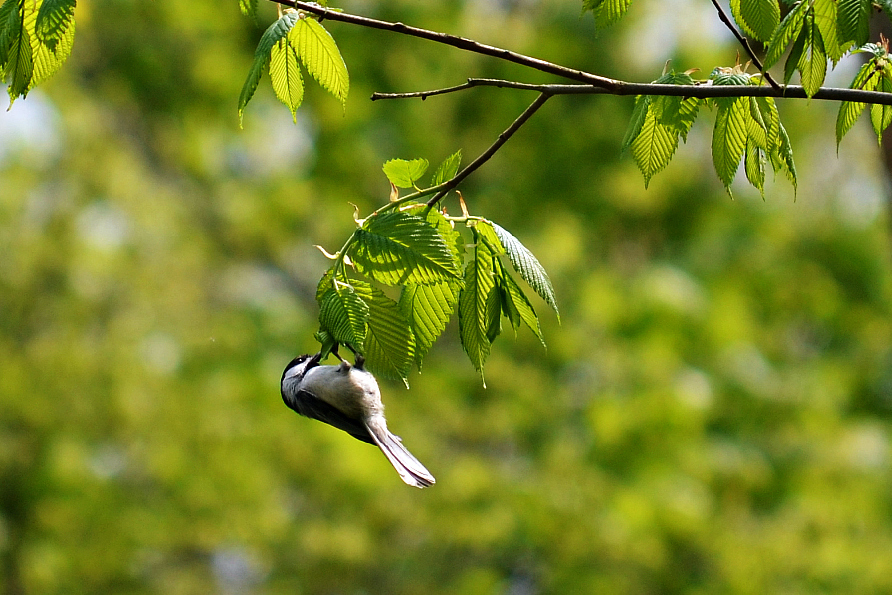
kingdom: Animalia
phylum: Chordata
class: Aves
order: Passeriformes
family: Paridae
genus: Poecile
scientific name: Poecile atricapillus
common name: Black-capped chickadee
